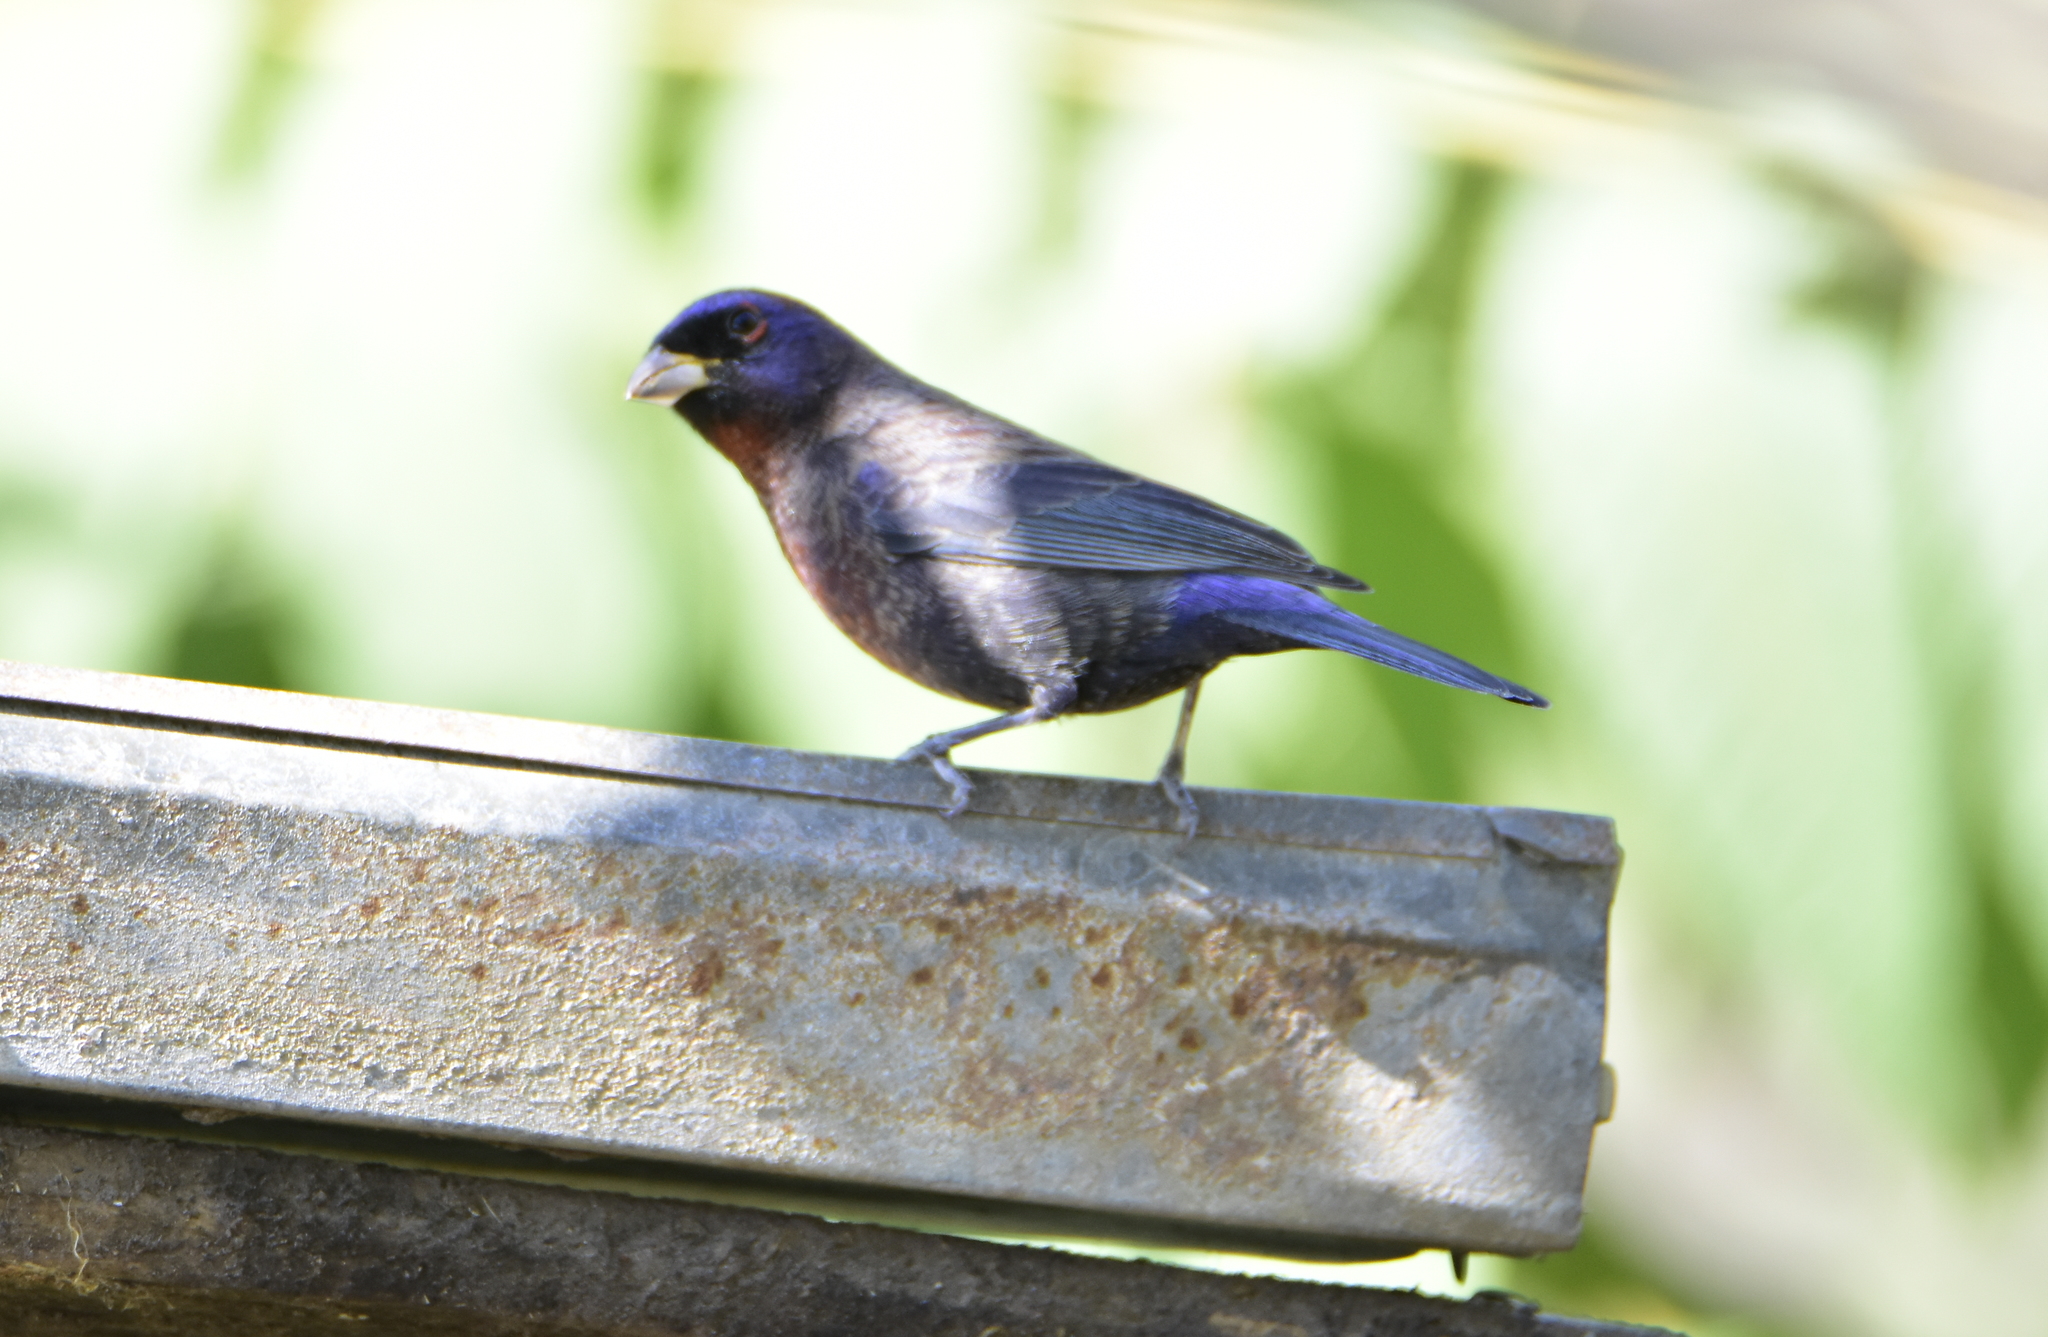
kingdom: Animalia
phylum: Chordata
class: Aves
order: Passeriformes
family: Cardinalidae
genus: Passerina
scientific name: Passerina versicolor
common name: Varied bunting
